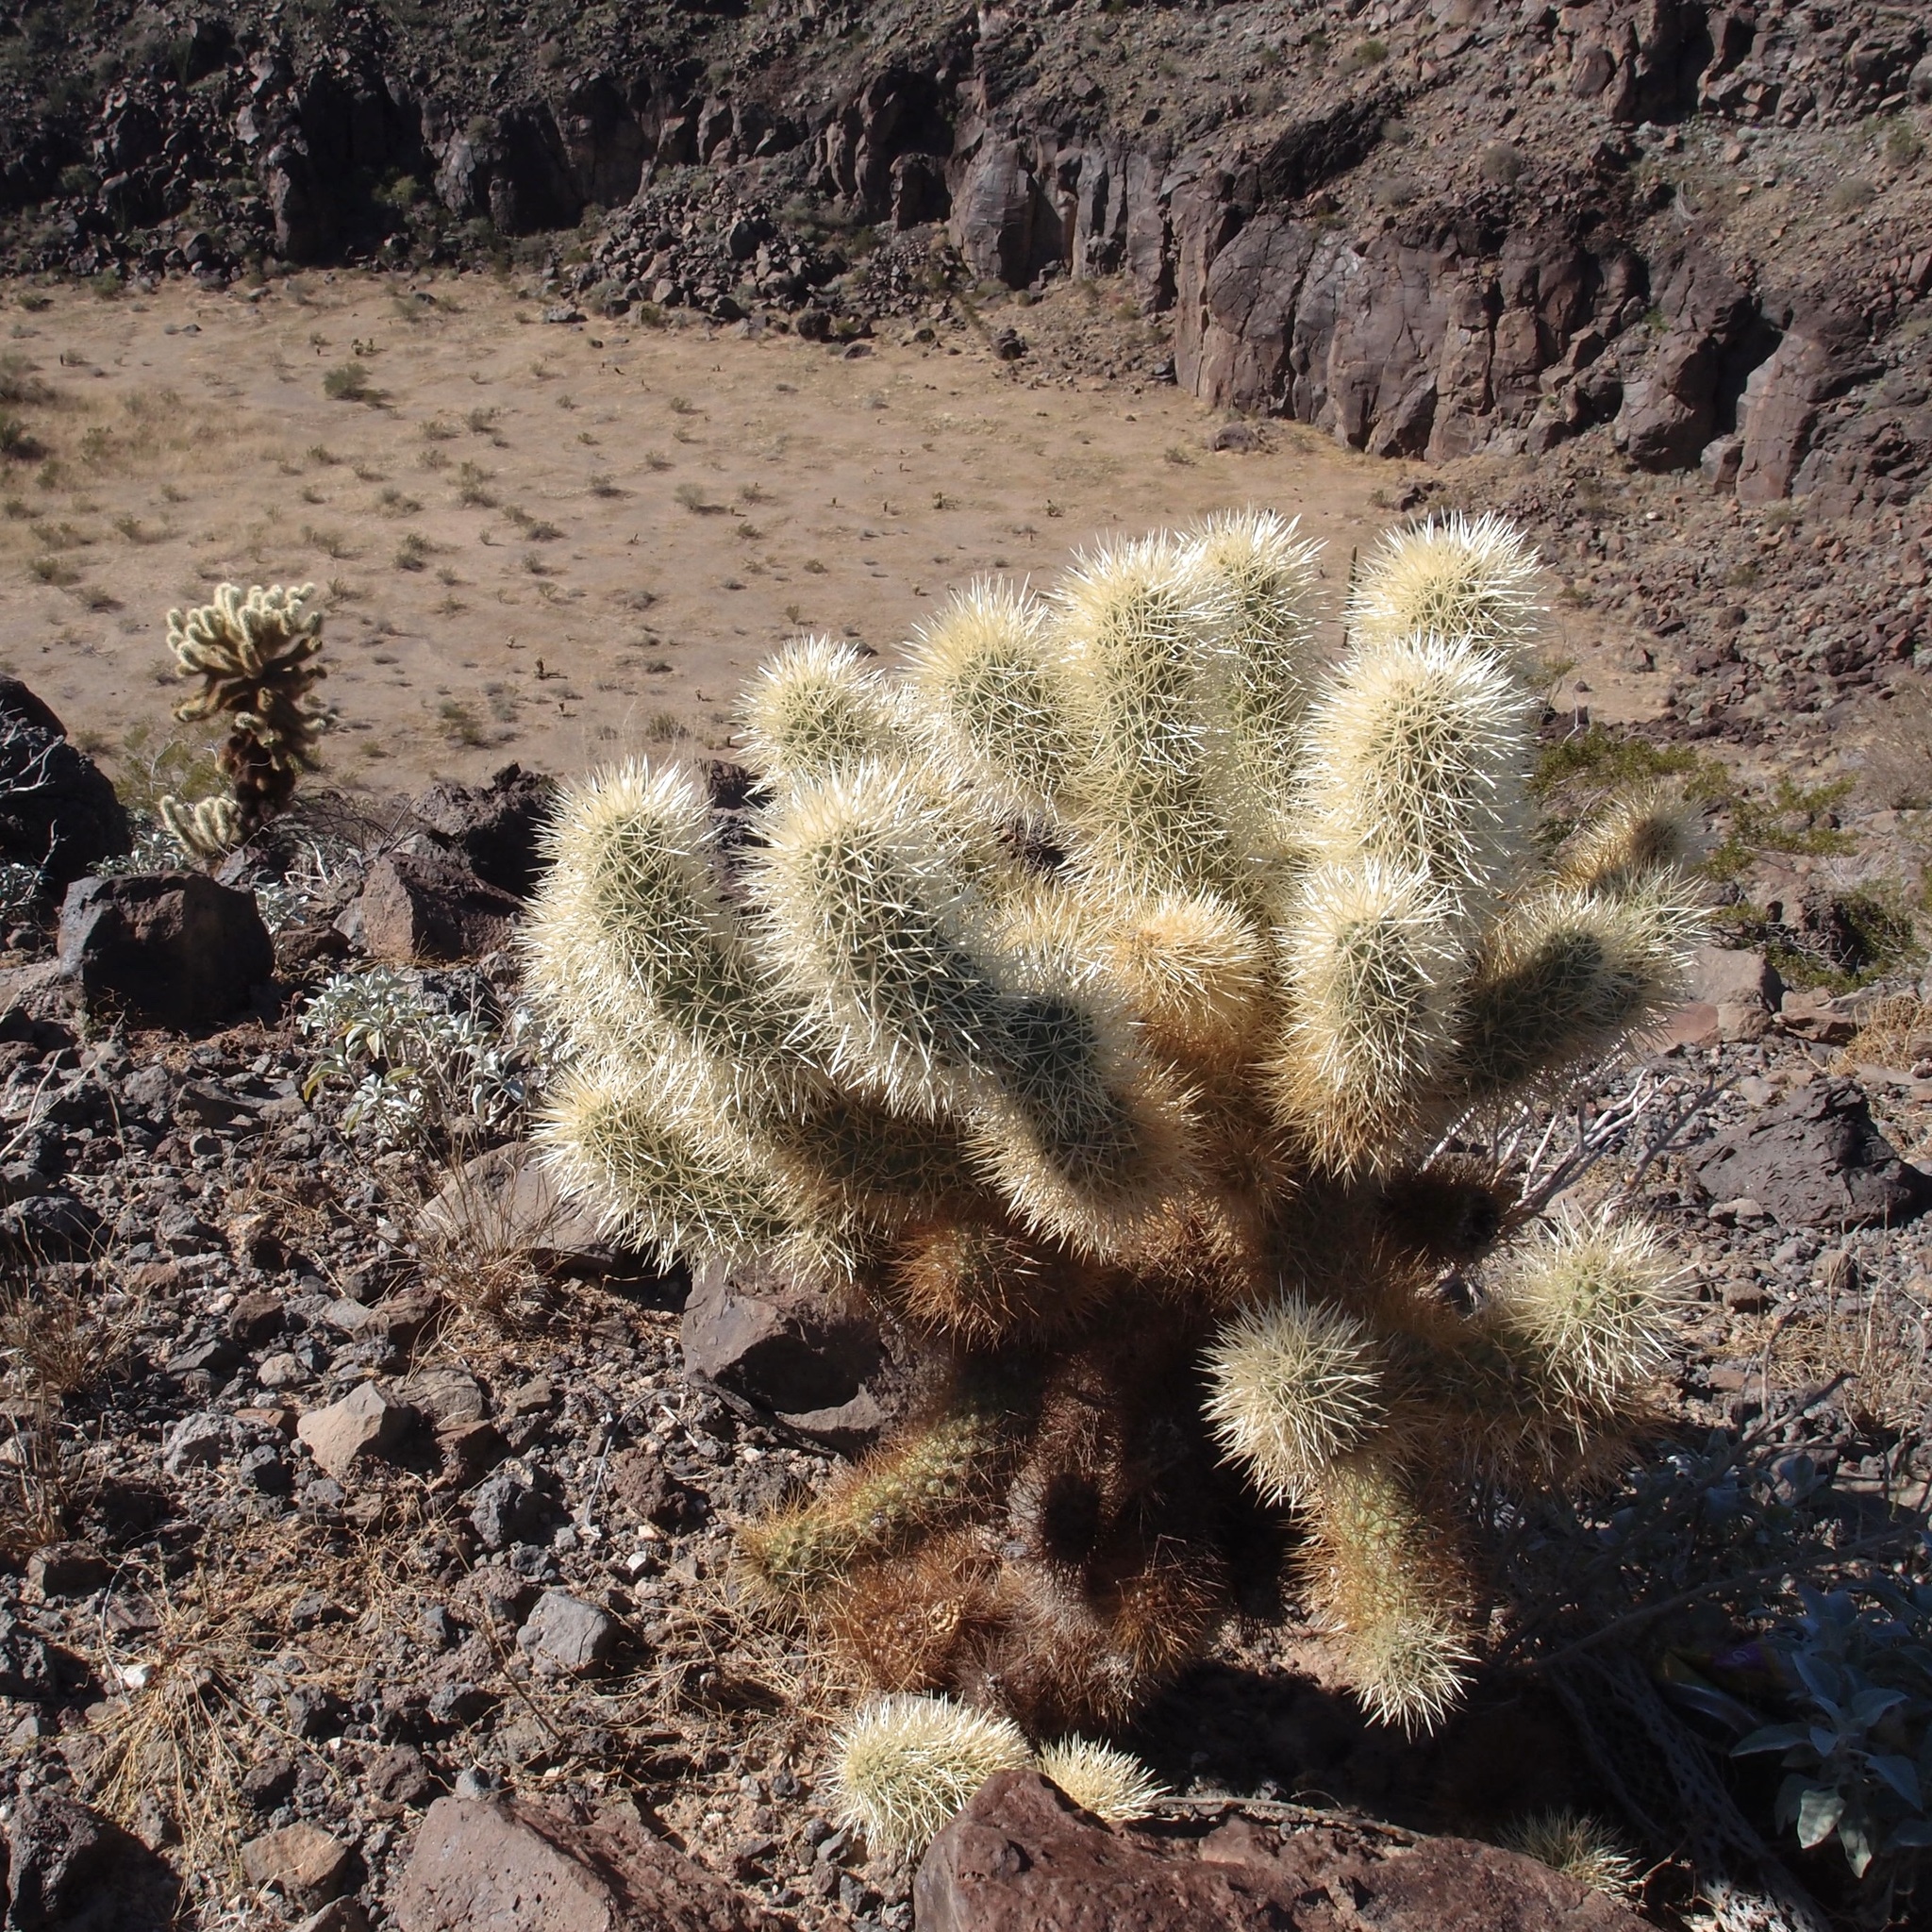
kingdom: Plantae
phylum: Tracheophyta
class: Magnoliopsida
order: Caryophyllales
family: Cactaceae
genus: Cylindropuntia
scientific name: Cylindropuntia fosbergii
